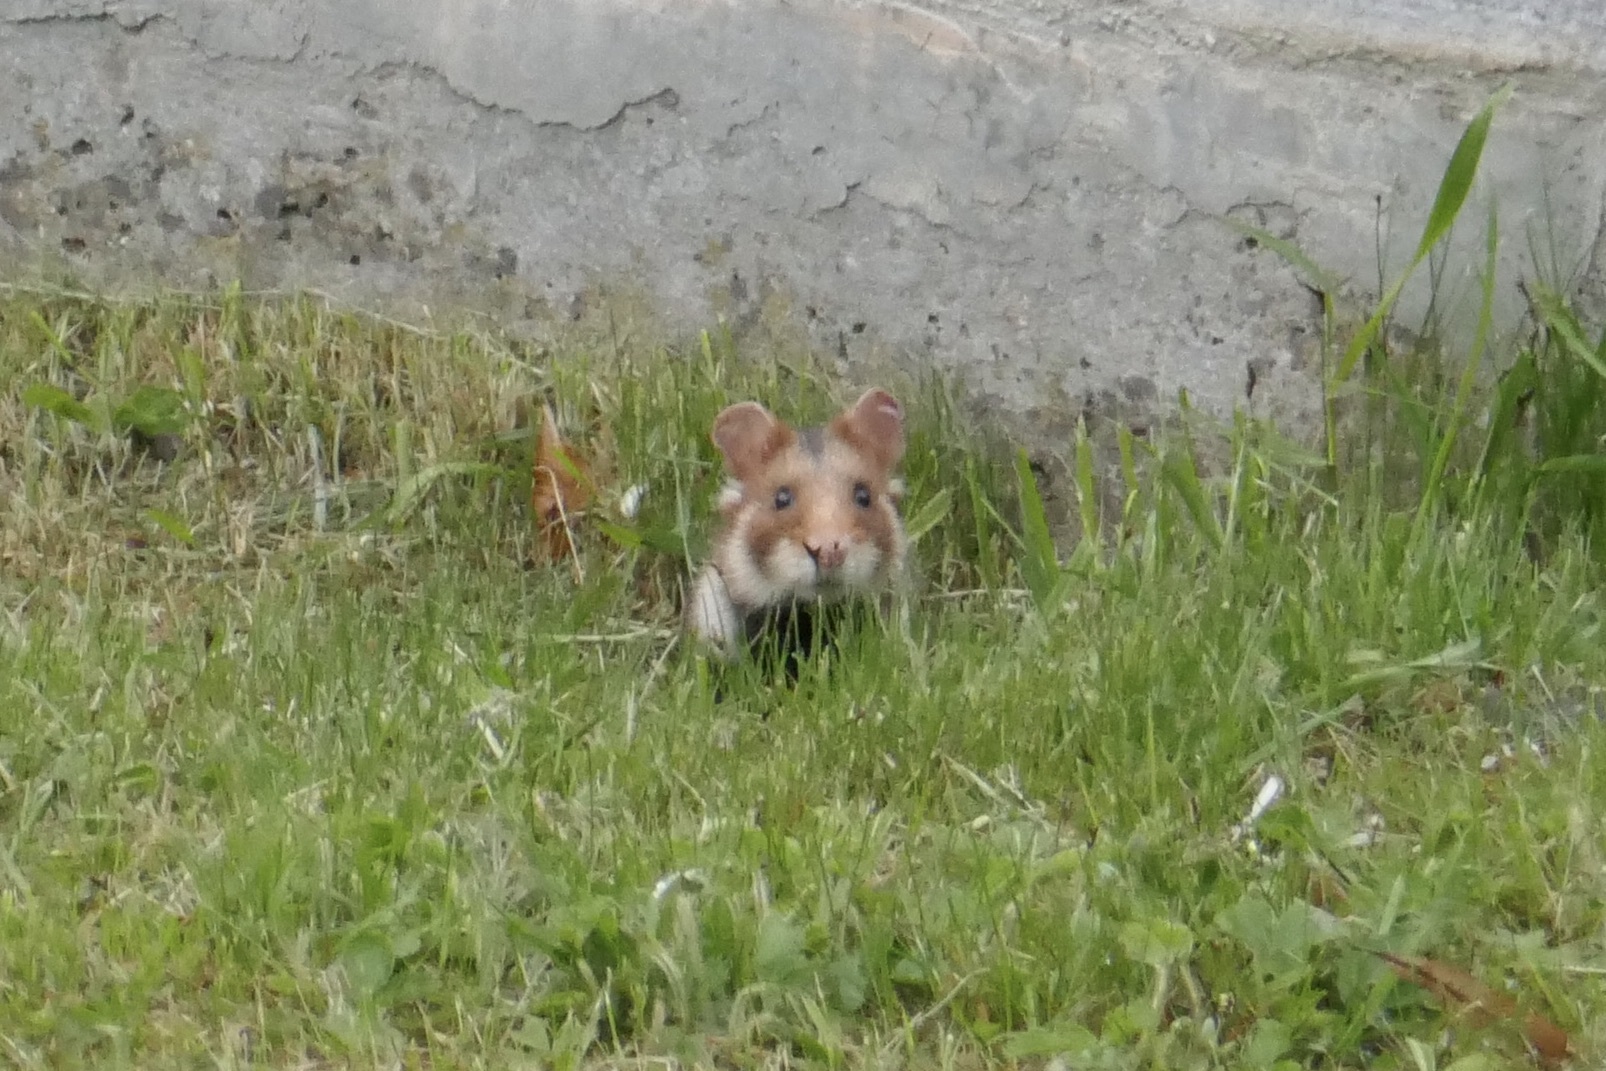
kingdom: Animalia
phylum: Chordata
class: Mammalia
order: Rodentia
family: Cricetidae
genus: Cricetus
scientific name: Cricetus cricetus
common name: Common hamster
